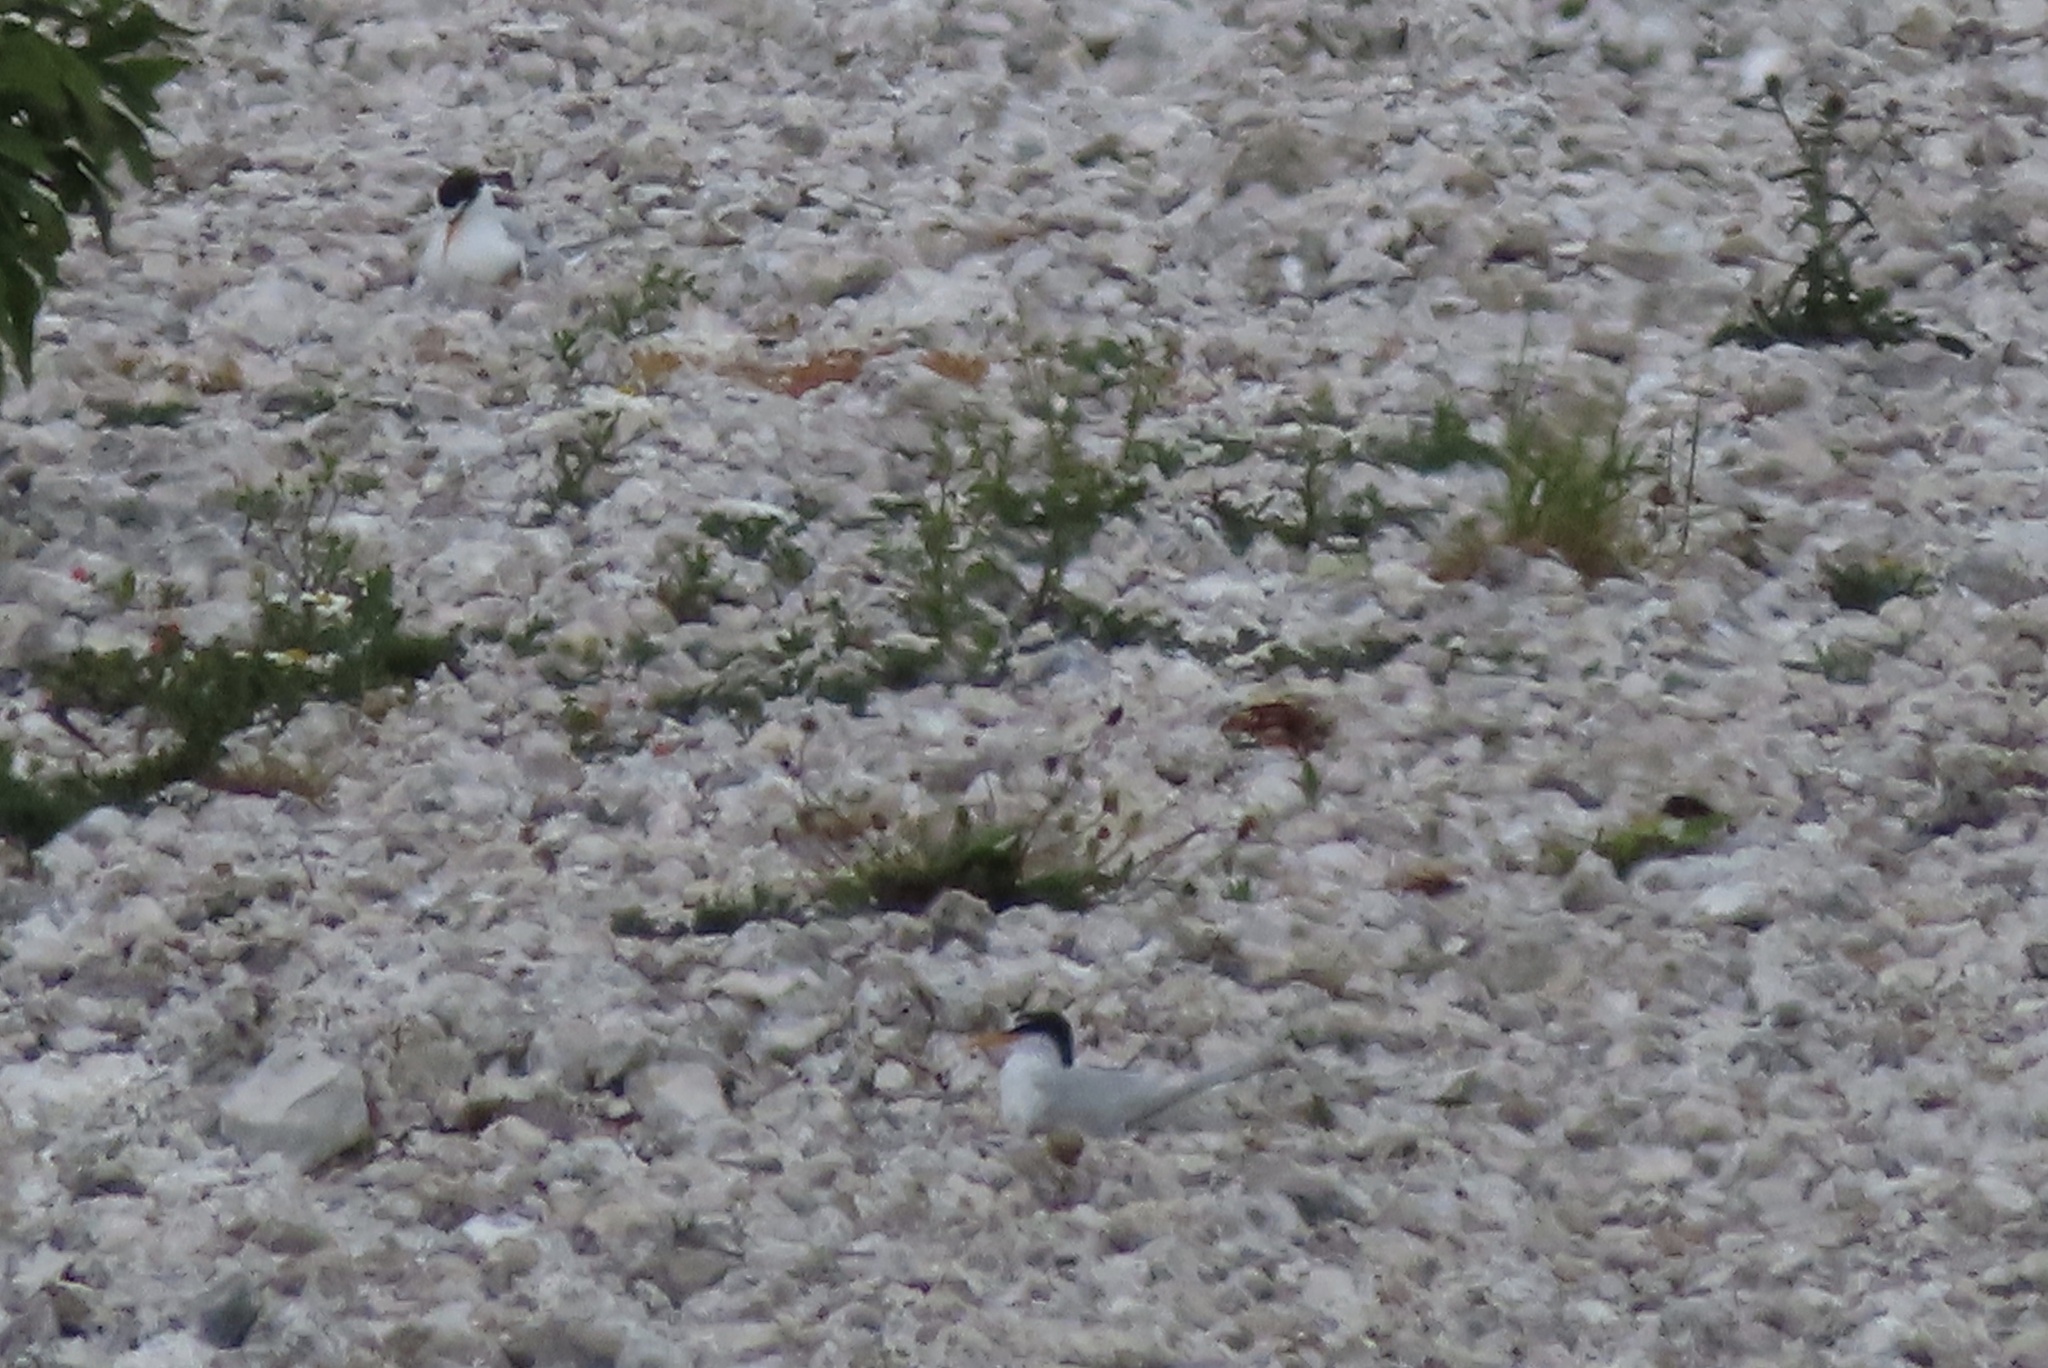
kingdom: Animalia
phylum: Chordata
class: Aves
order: Charadriiformes
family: Laridae
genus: Sternula
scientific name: Sternula albifrons
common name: Little tern
